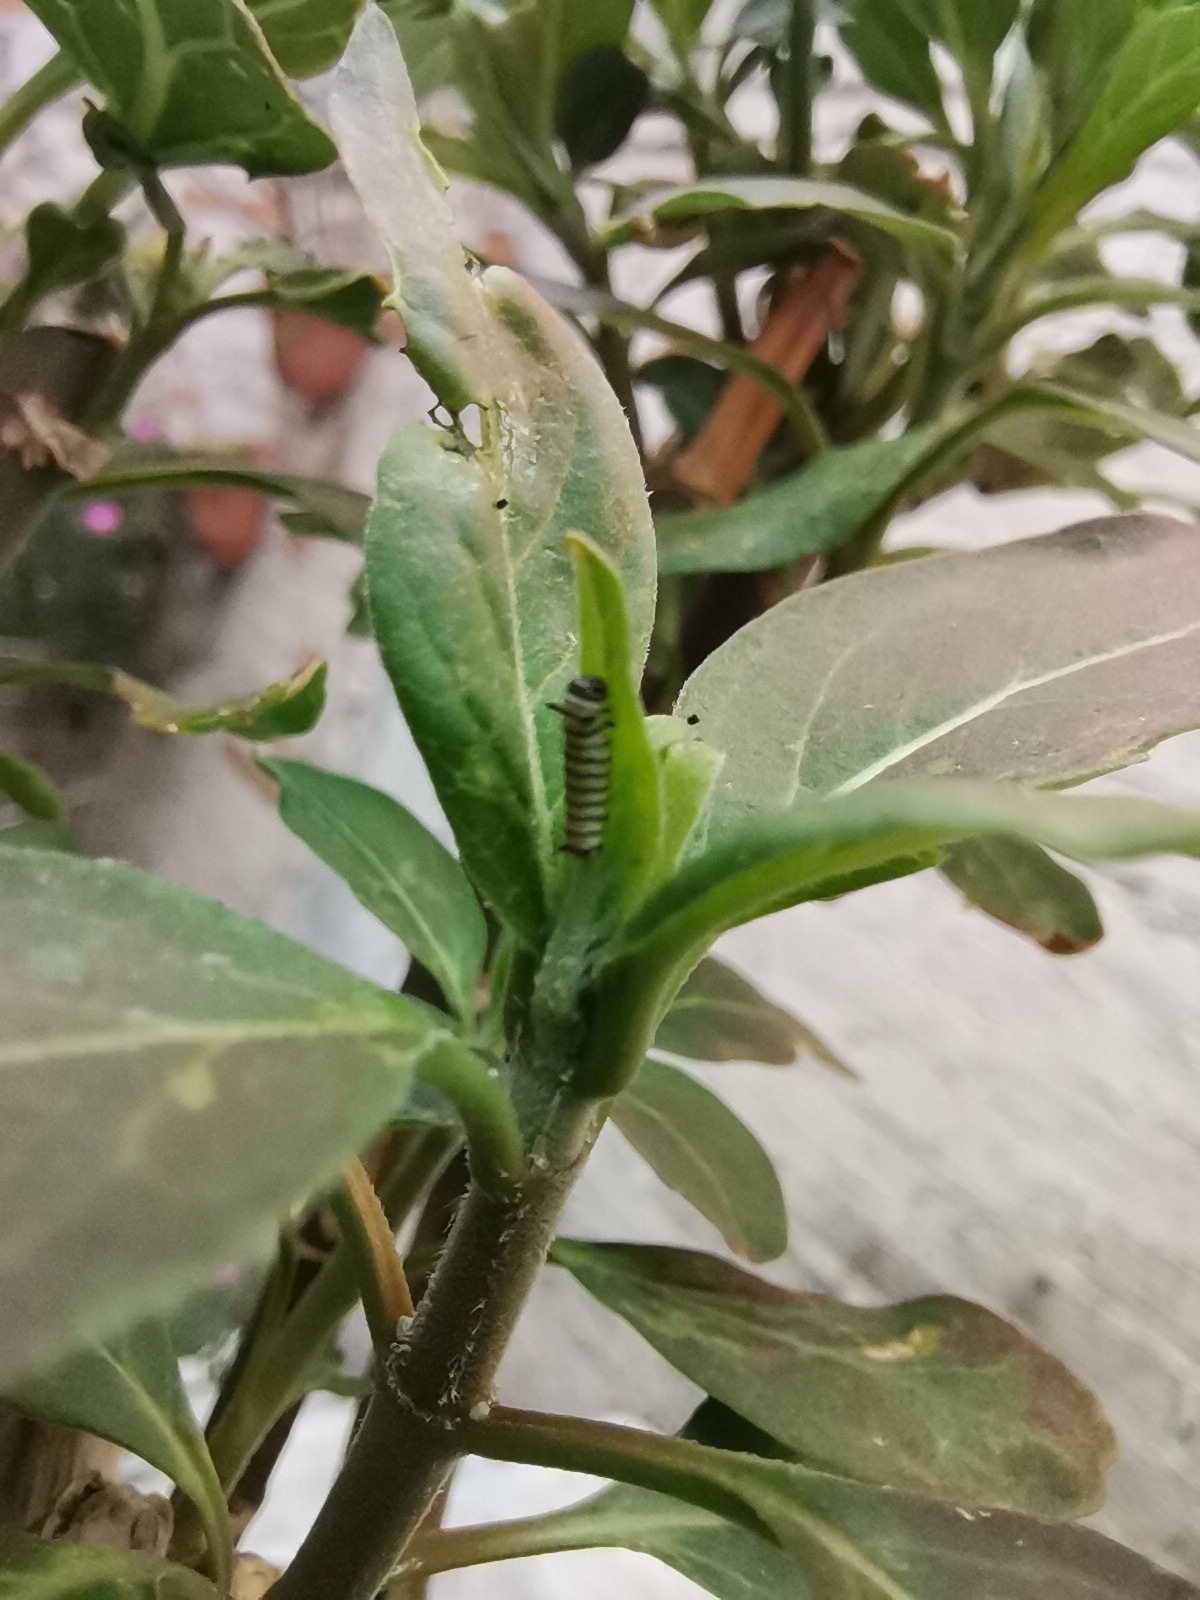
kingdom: Animalia
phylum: Arthropoda
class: Insecta
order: Lepidoptera
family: Nymphalidae
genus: Danaus
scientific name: Danaus plexippus
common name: Monarch
